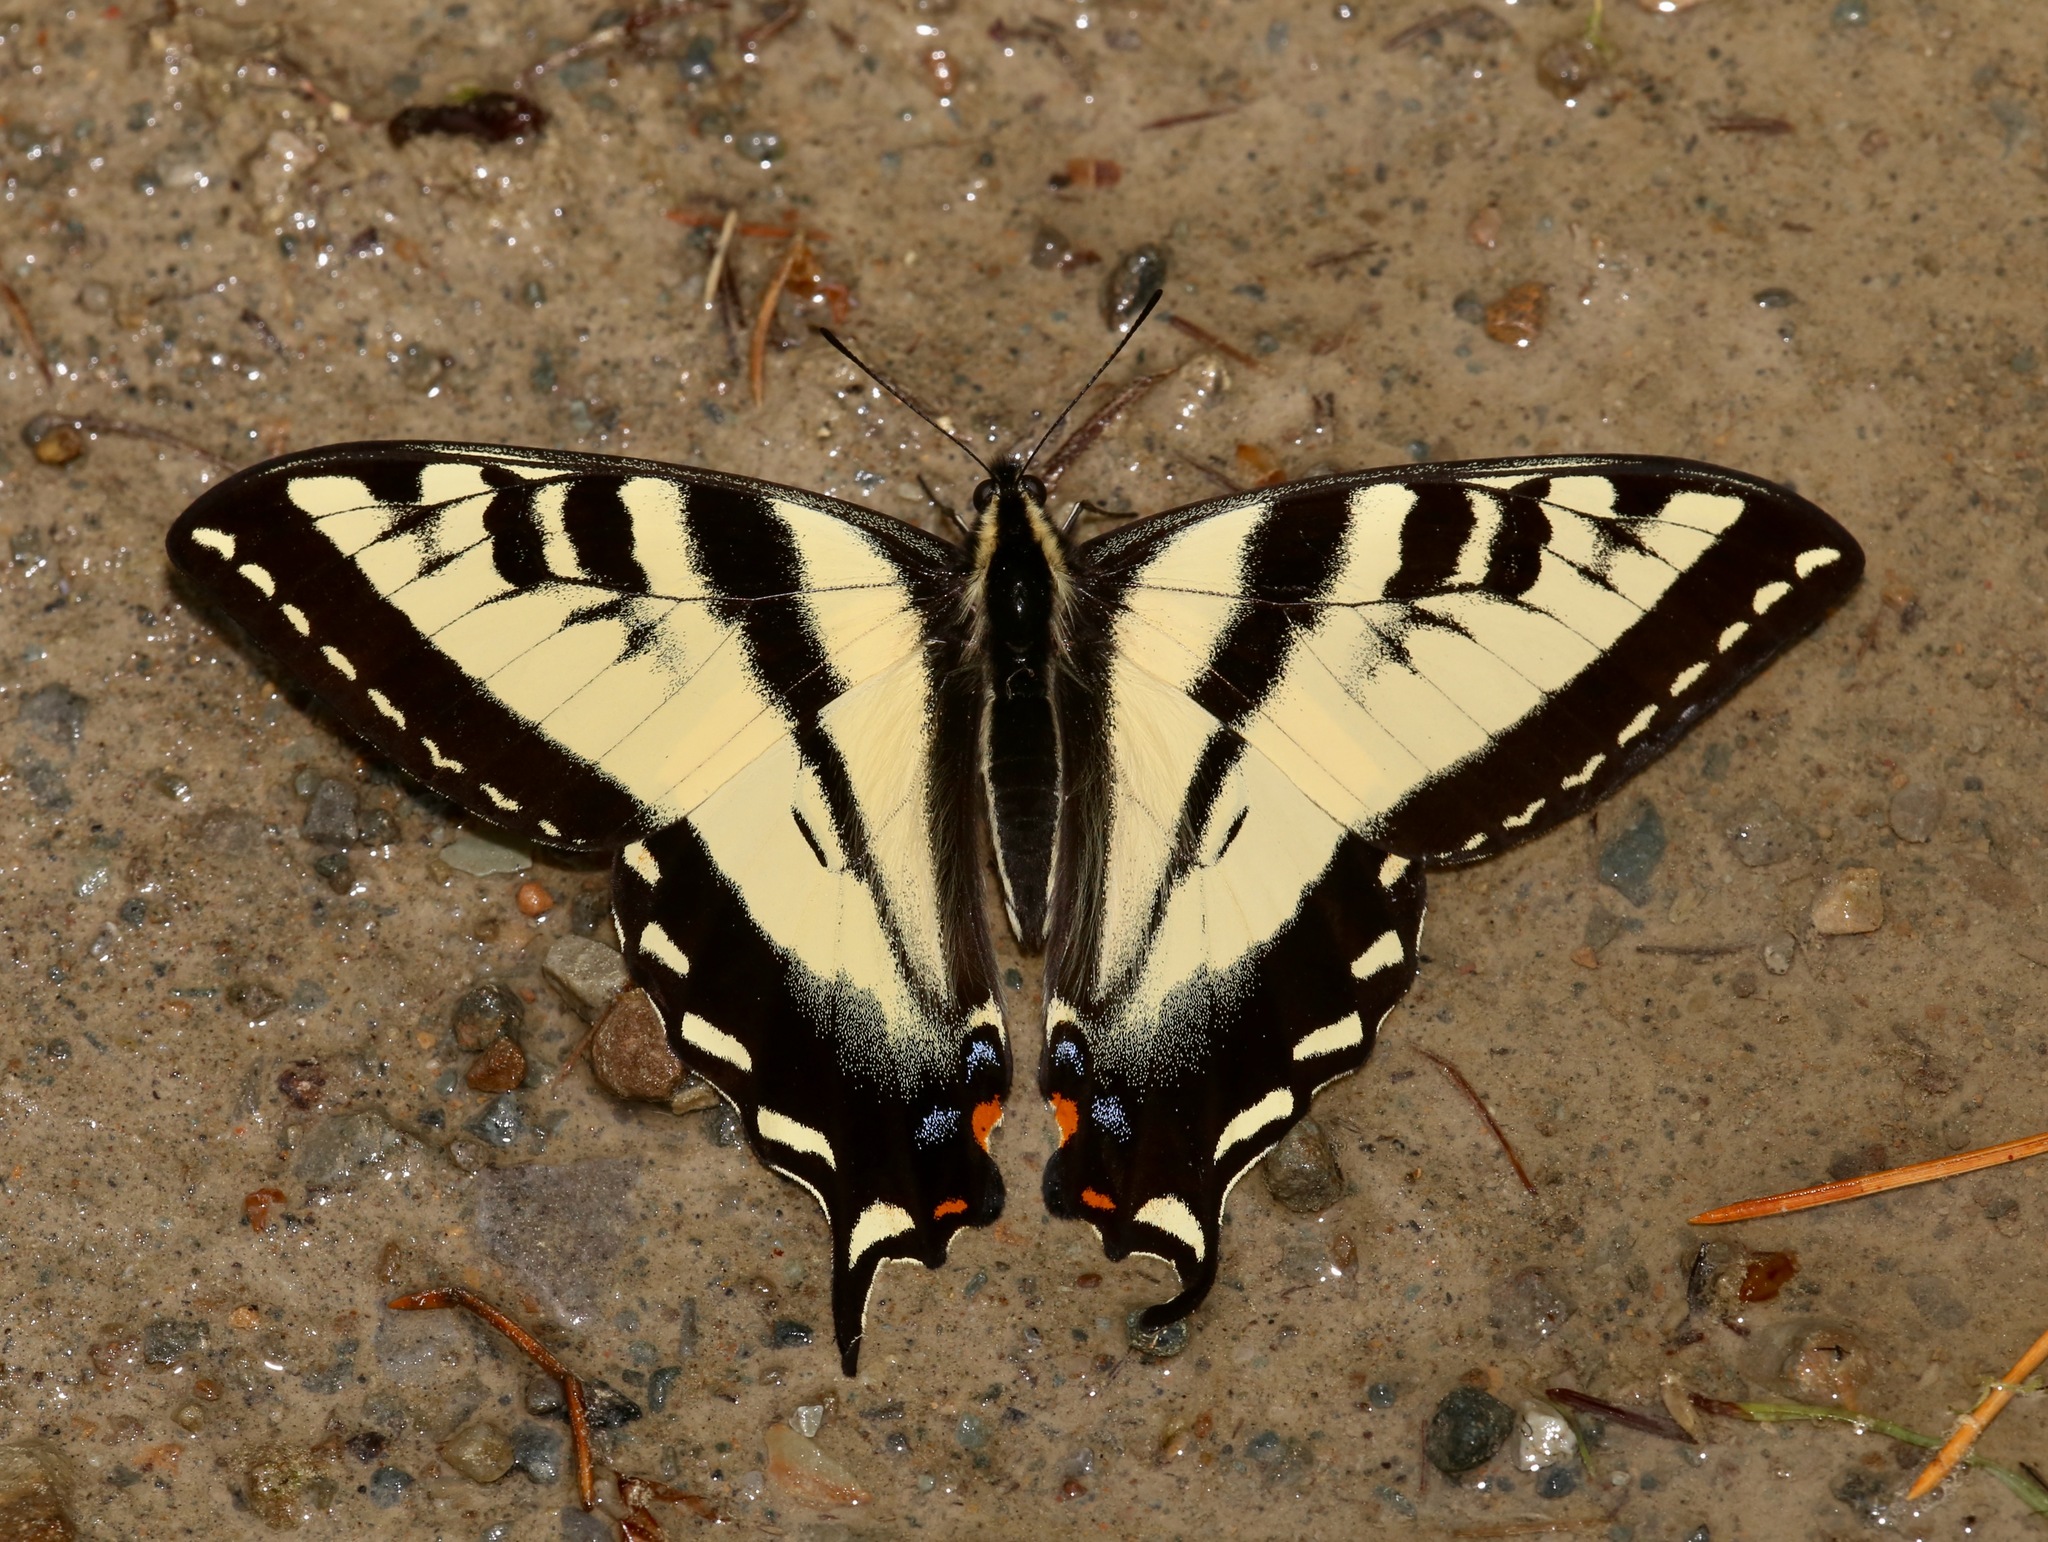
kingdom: Animalia
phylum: Arthropoda
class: Insecta
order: Lepidoptera
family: Papilionidae
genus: Papilio
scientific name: Papilio rutulus
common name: Western tiger swallowtail
